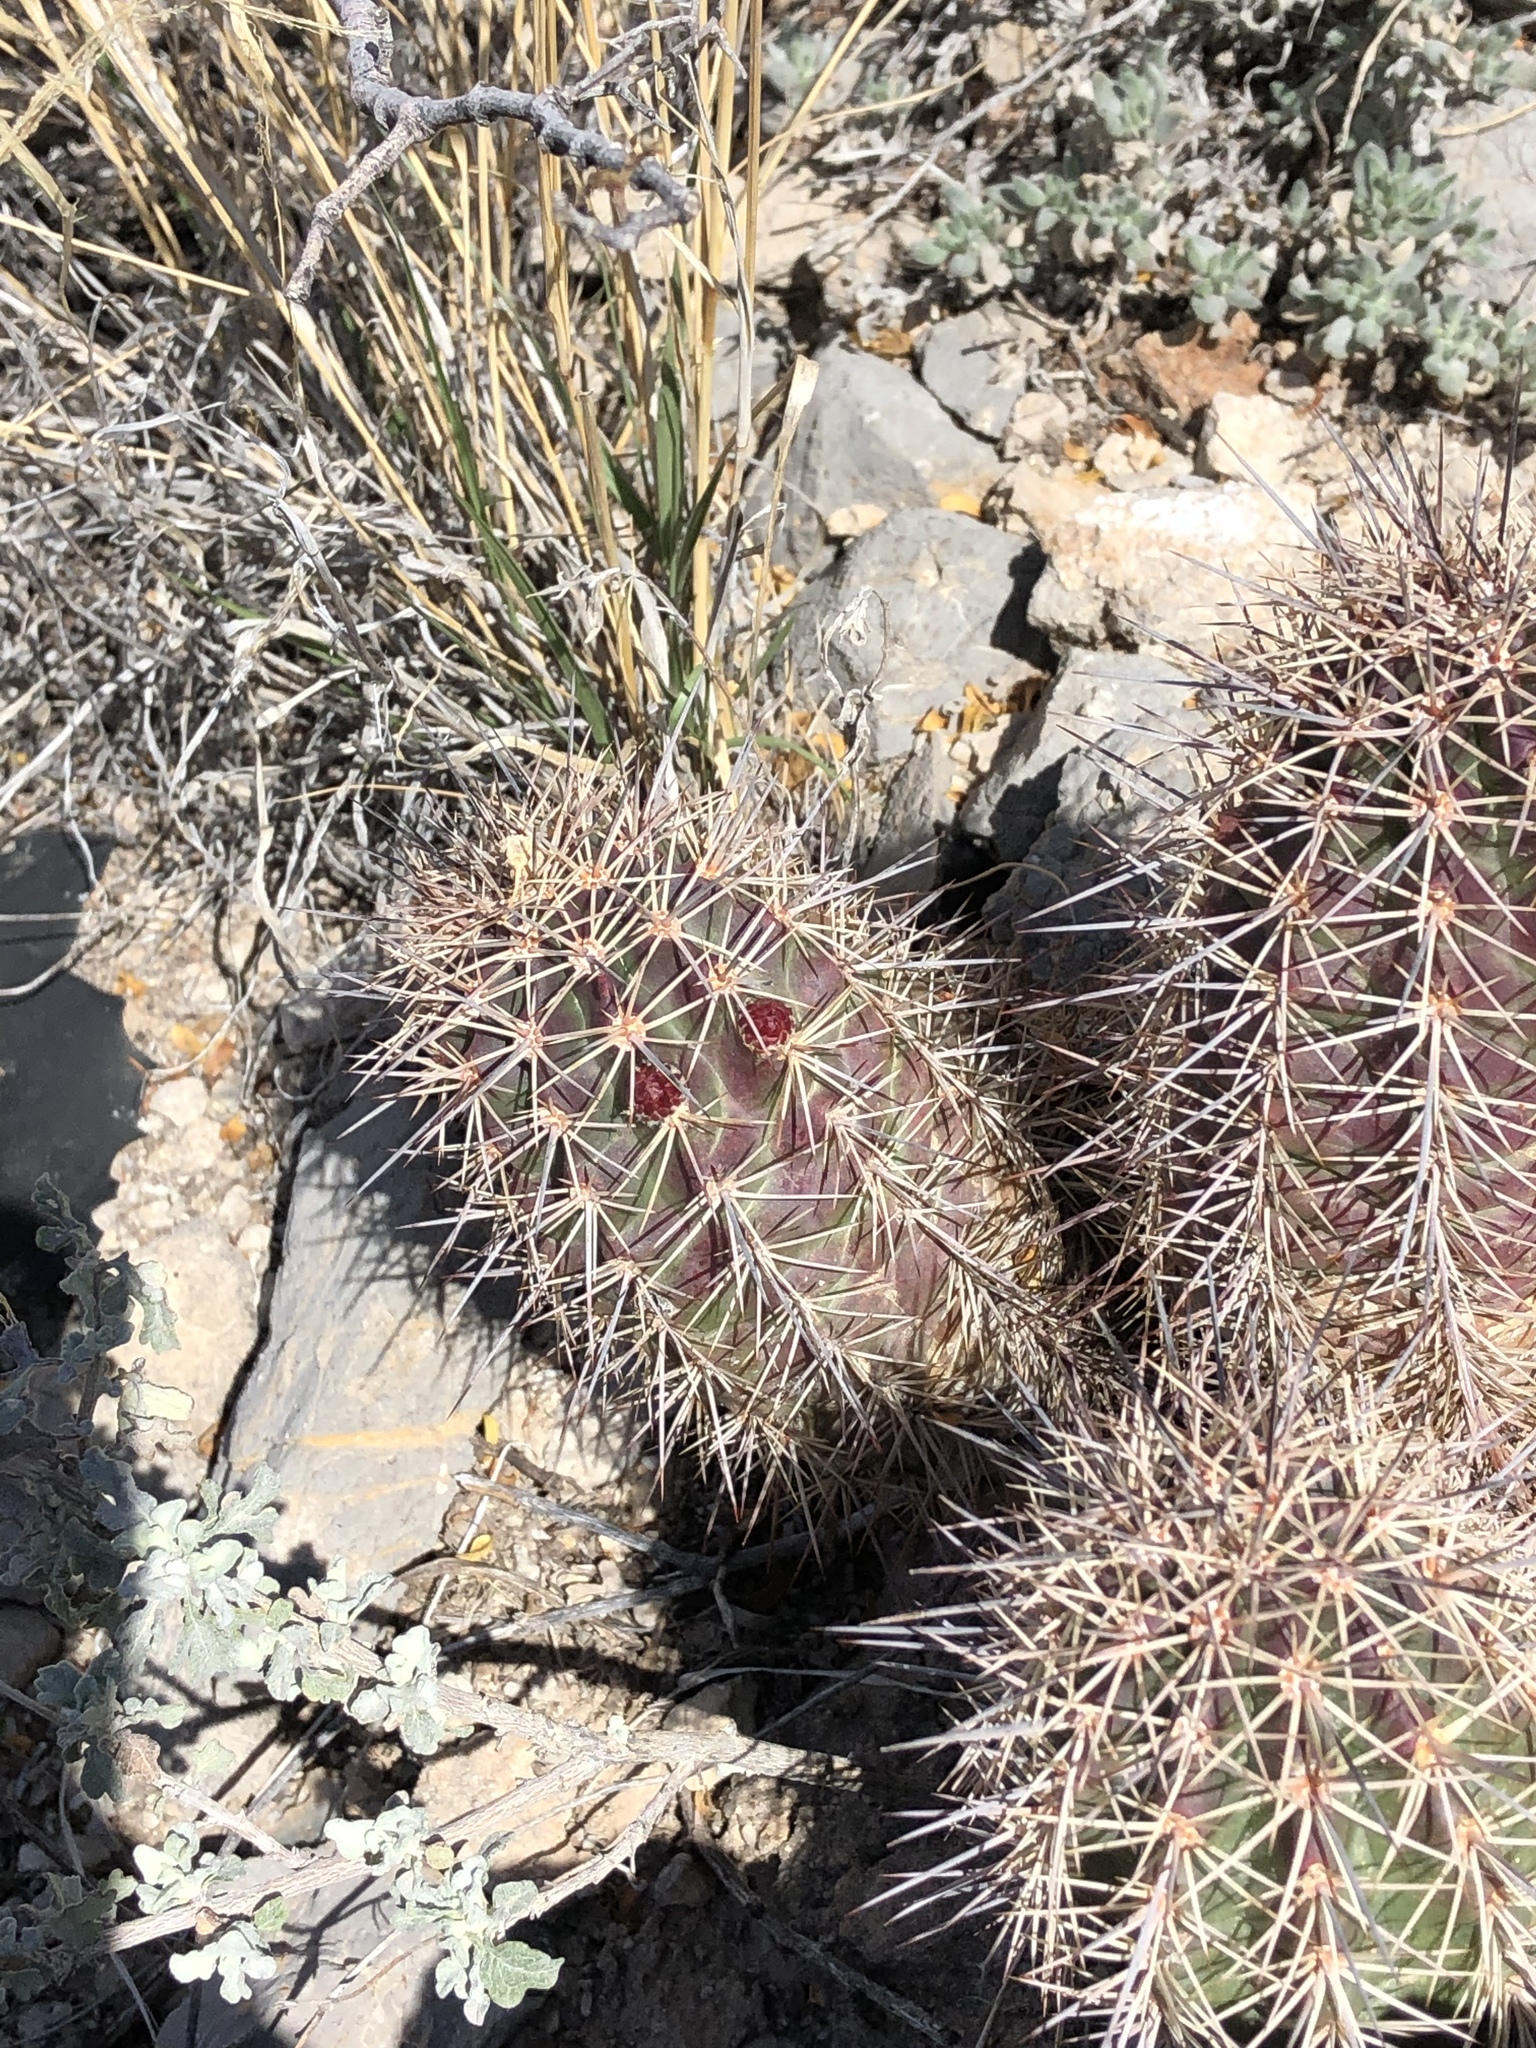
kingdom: Plantae
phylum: Tracheophyta
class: Magnoliopsida
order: Caryophyllales
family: Cactaceae
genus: Echinocereus
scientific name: Echinocereus coccineus
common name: Scarlet hedgehog cactus
